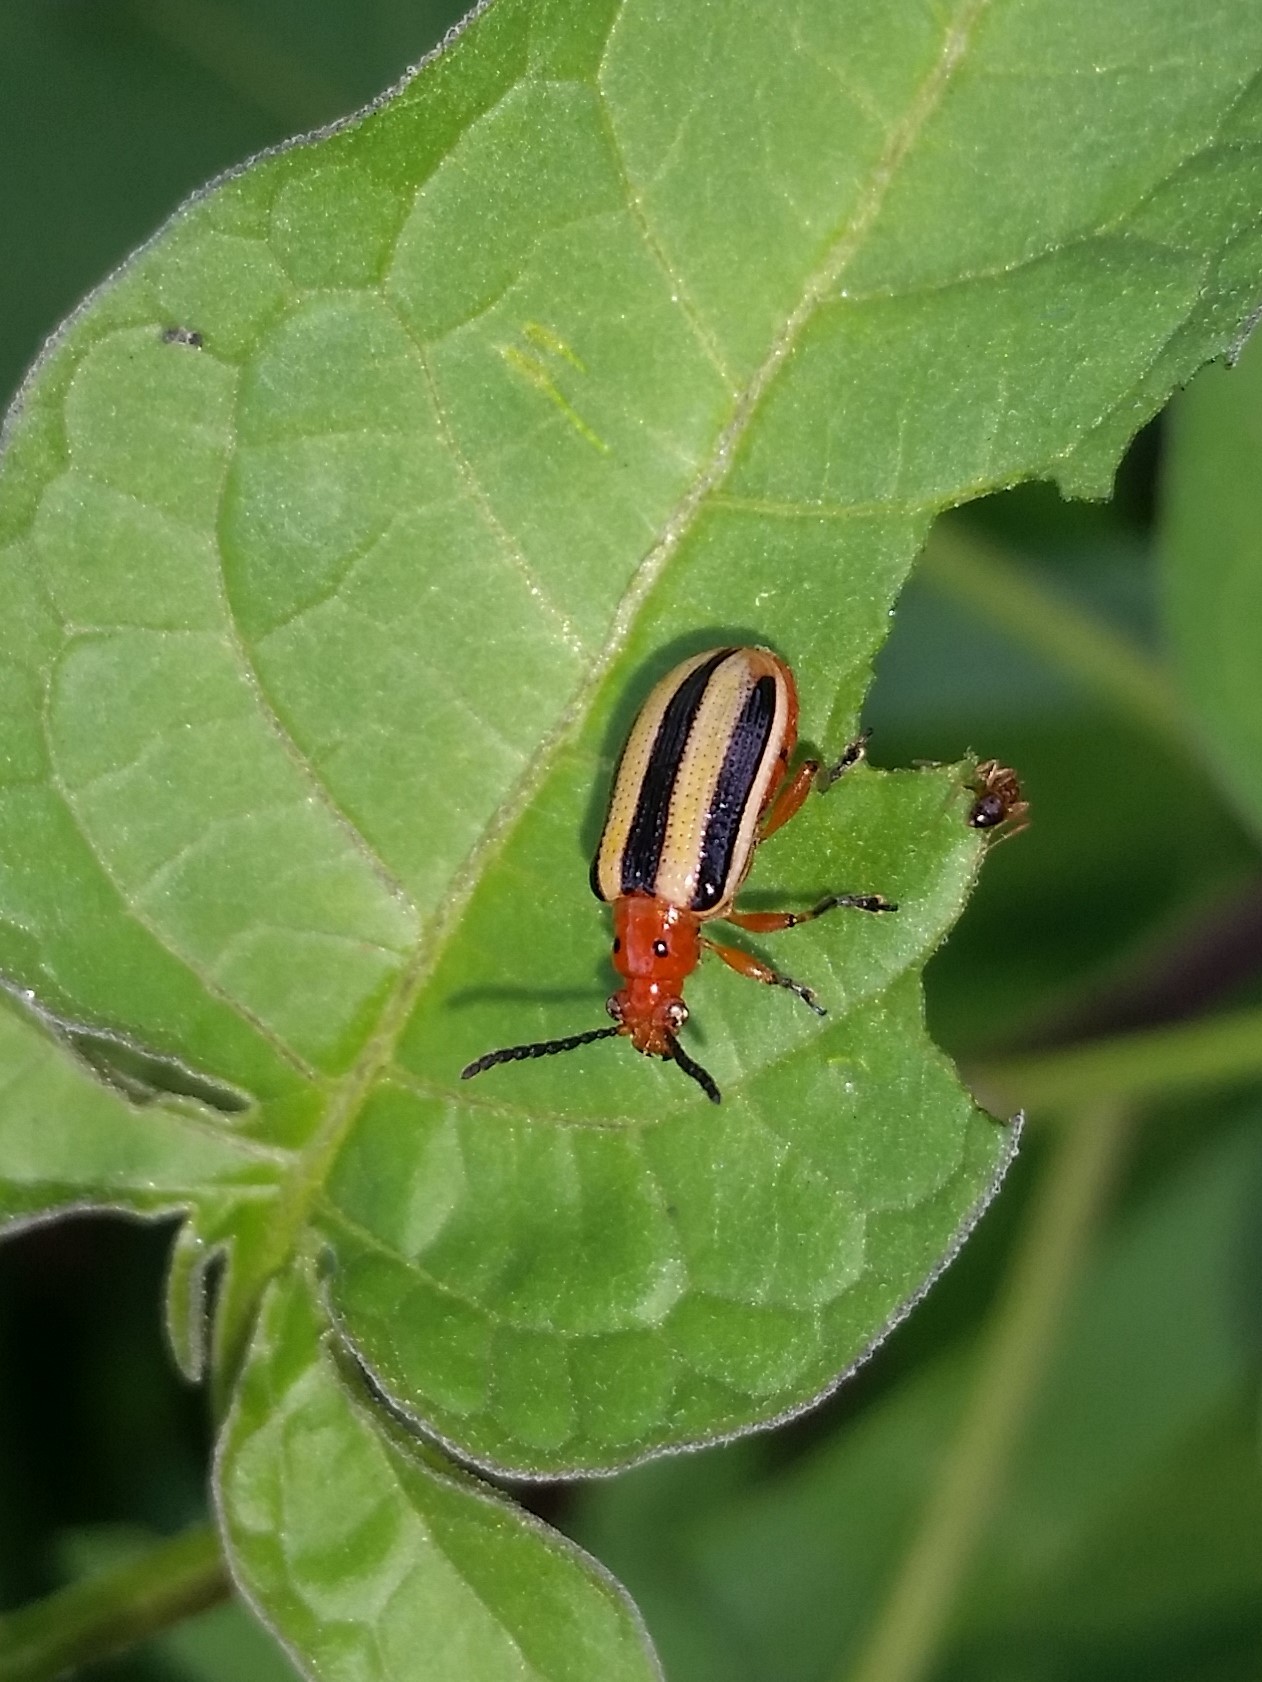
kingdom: Animalia
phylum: Arthropoda
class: Insecta
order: Coleoptera
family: Chrysomelidae
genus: Lema
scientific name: Lema daturaphila
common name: Leaf beetle
